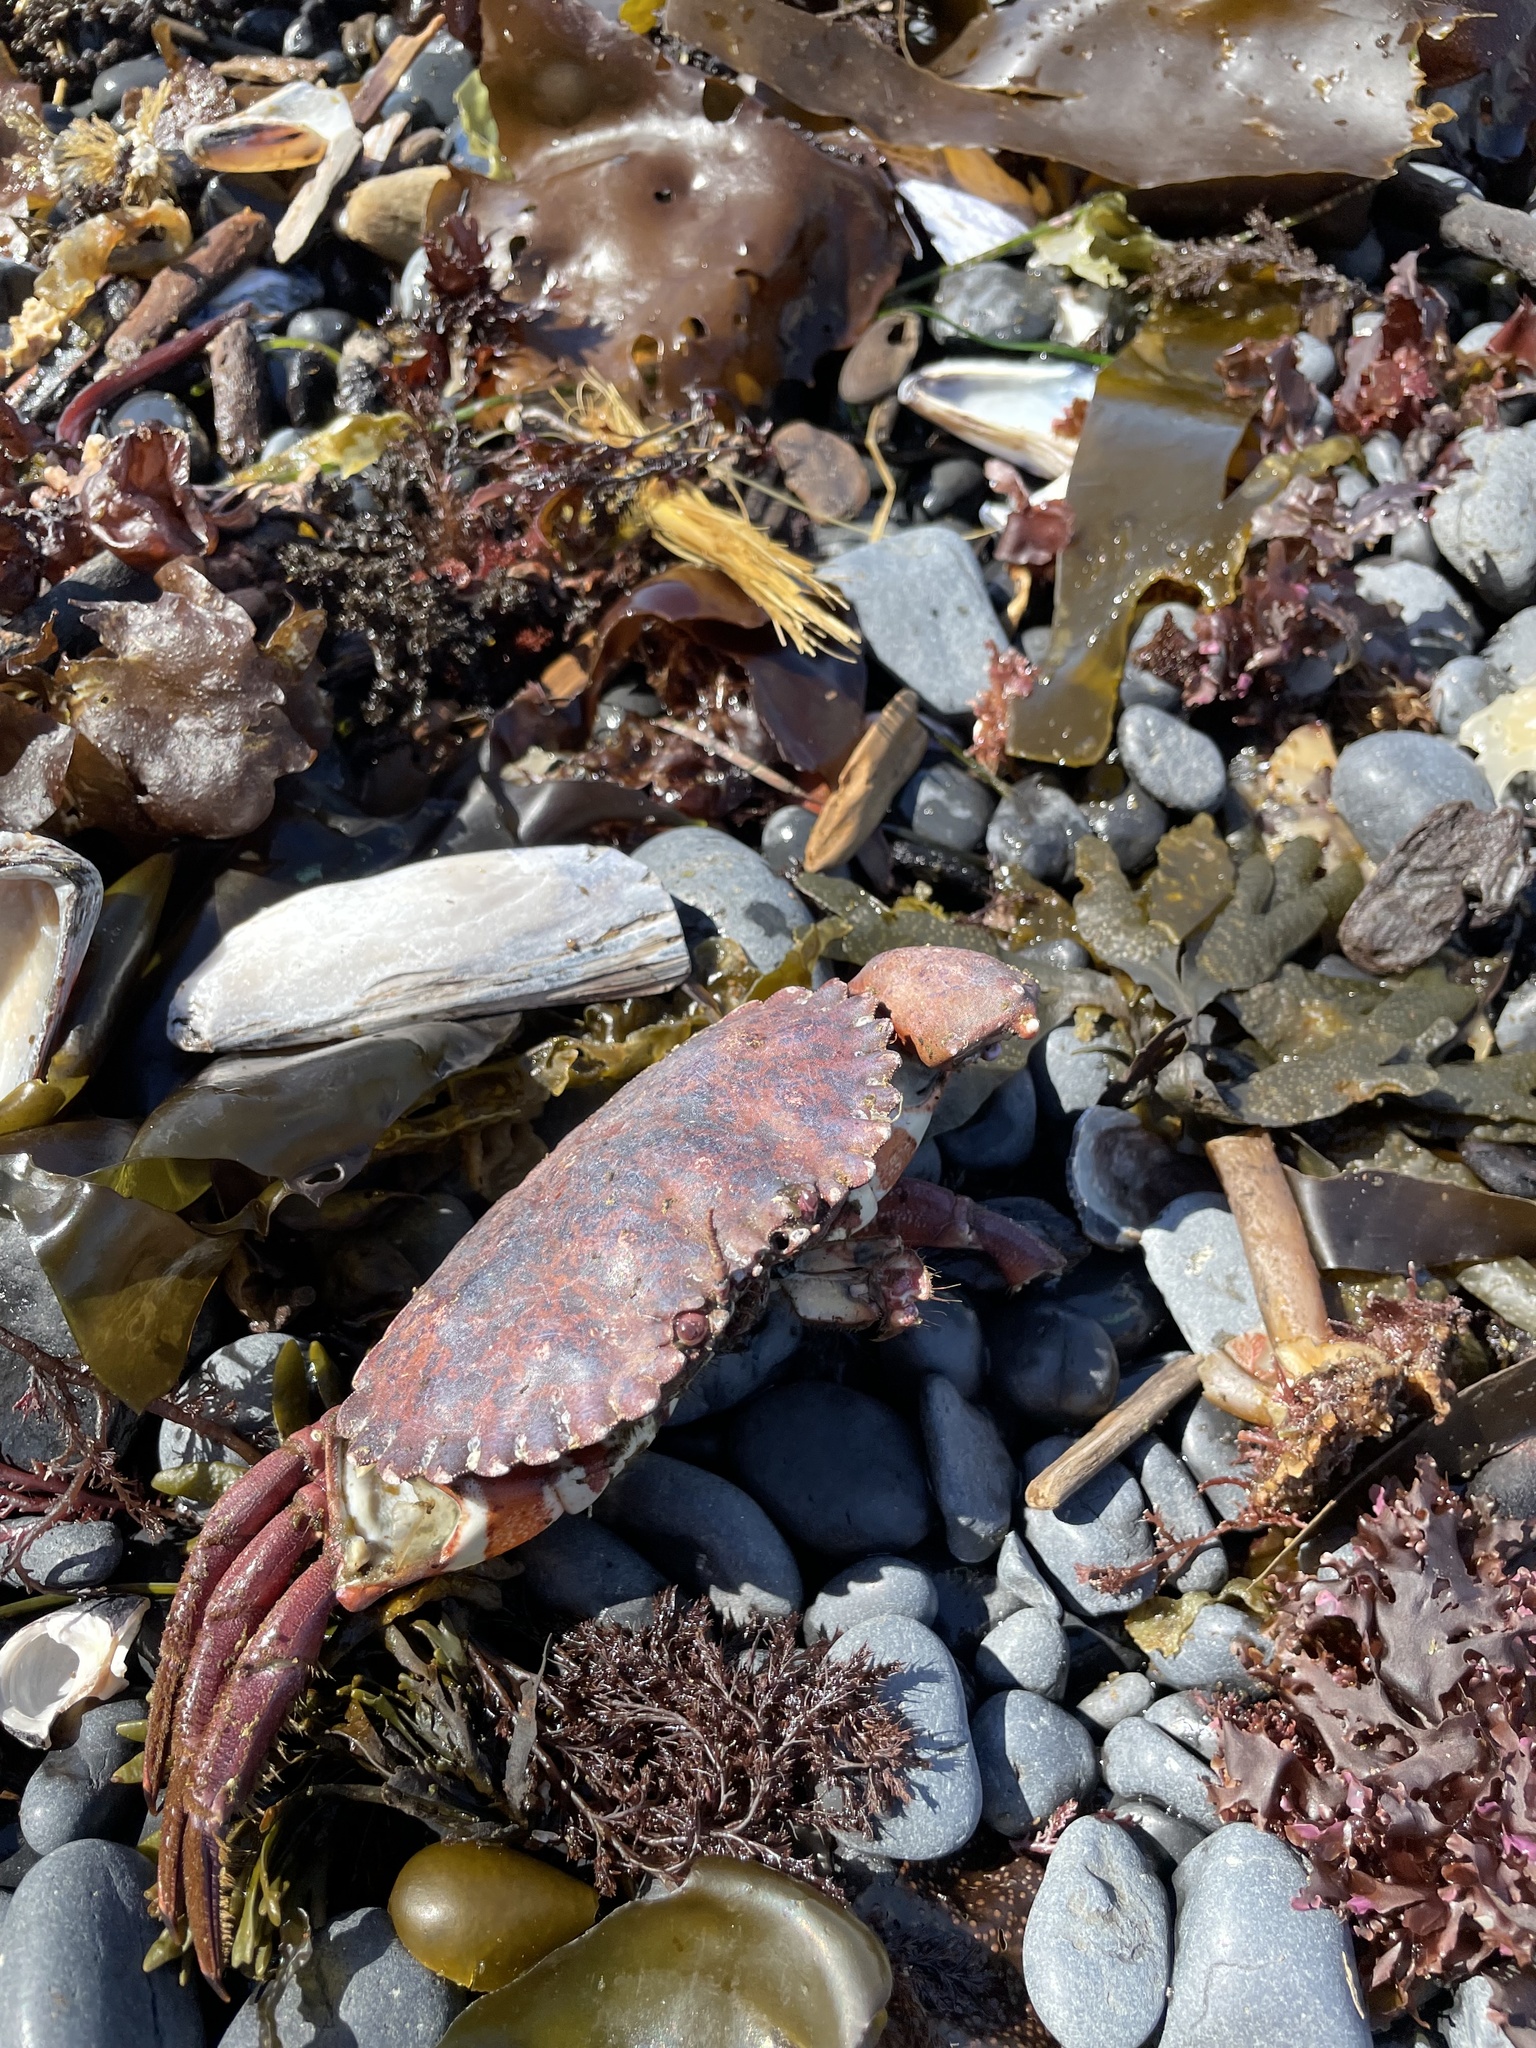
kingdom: Animalia
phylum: Arthropoda
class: Malacostraca
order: Decapoda
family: Cancridae
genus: Romaleon
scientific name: Romaleon antennarium
